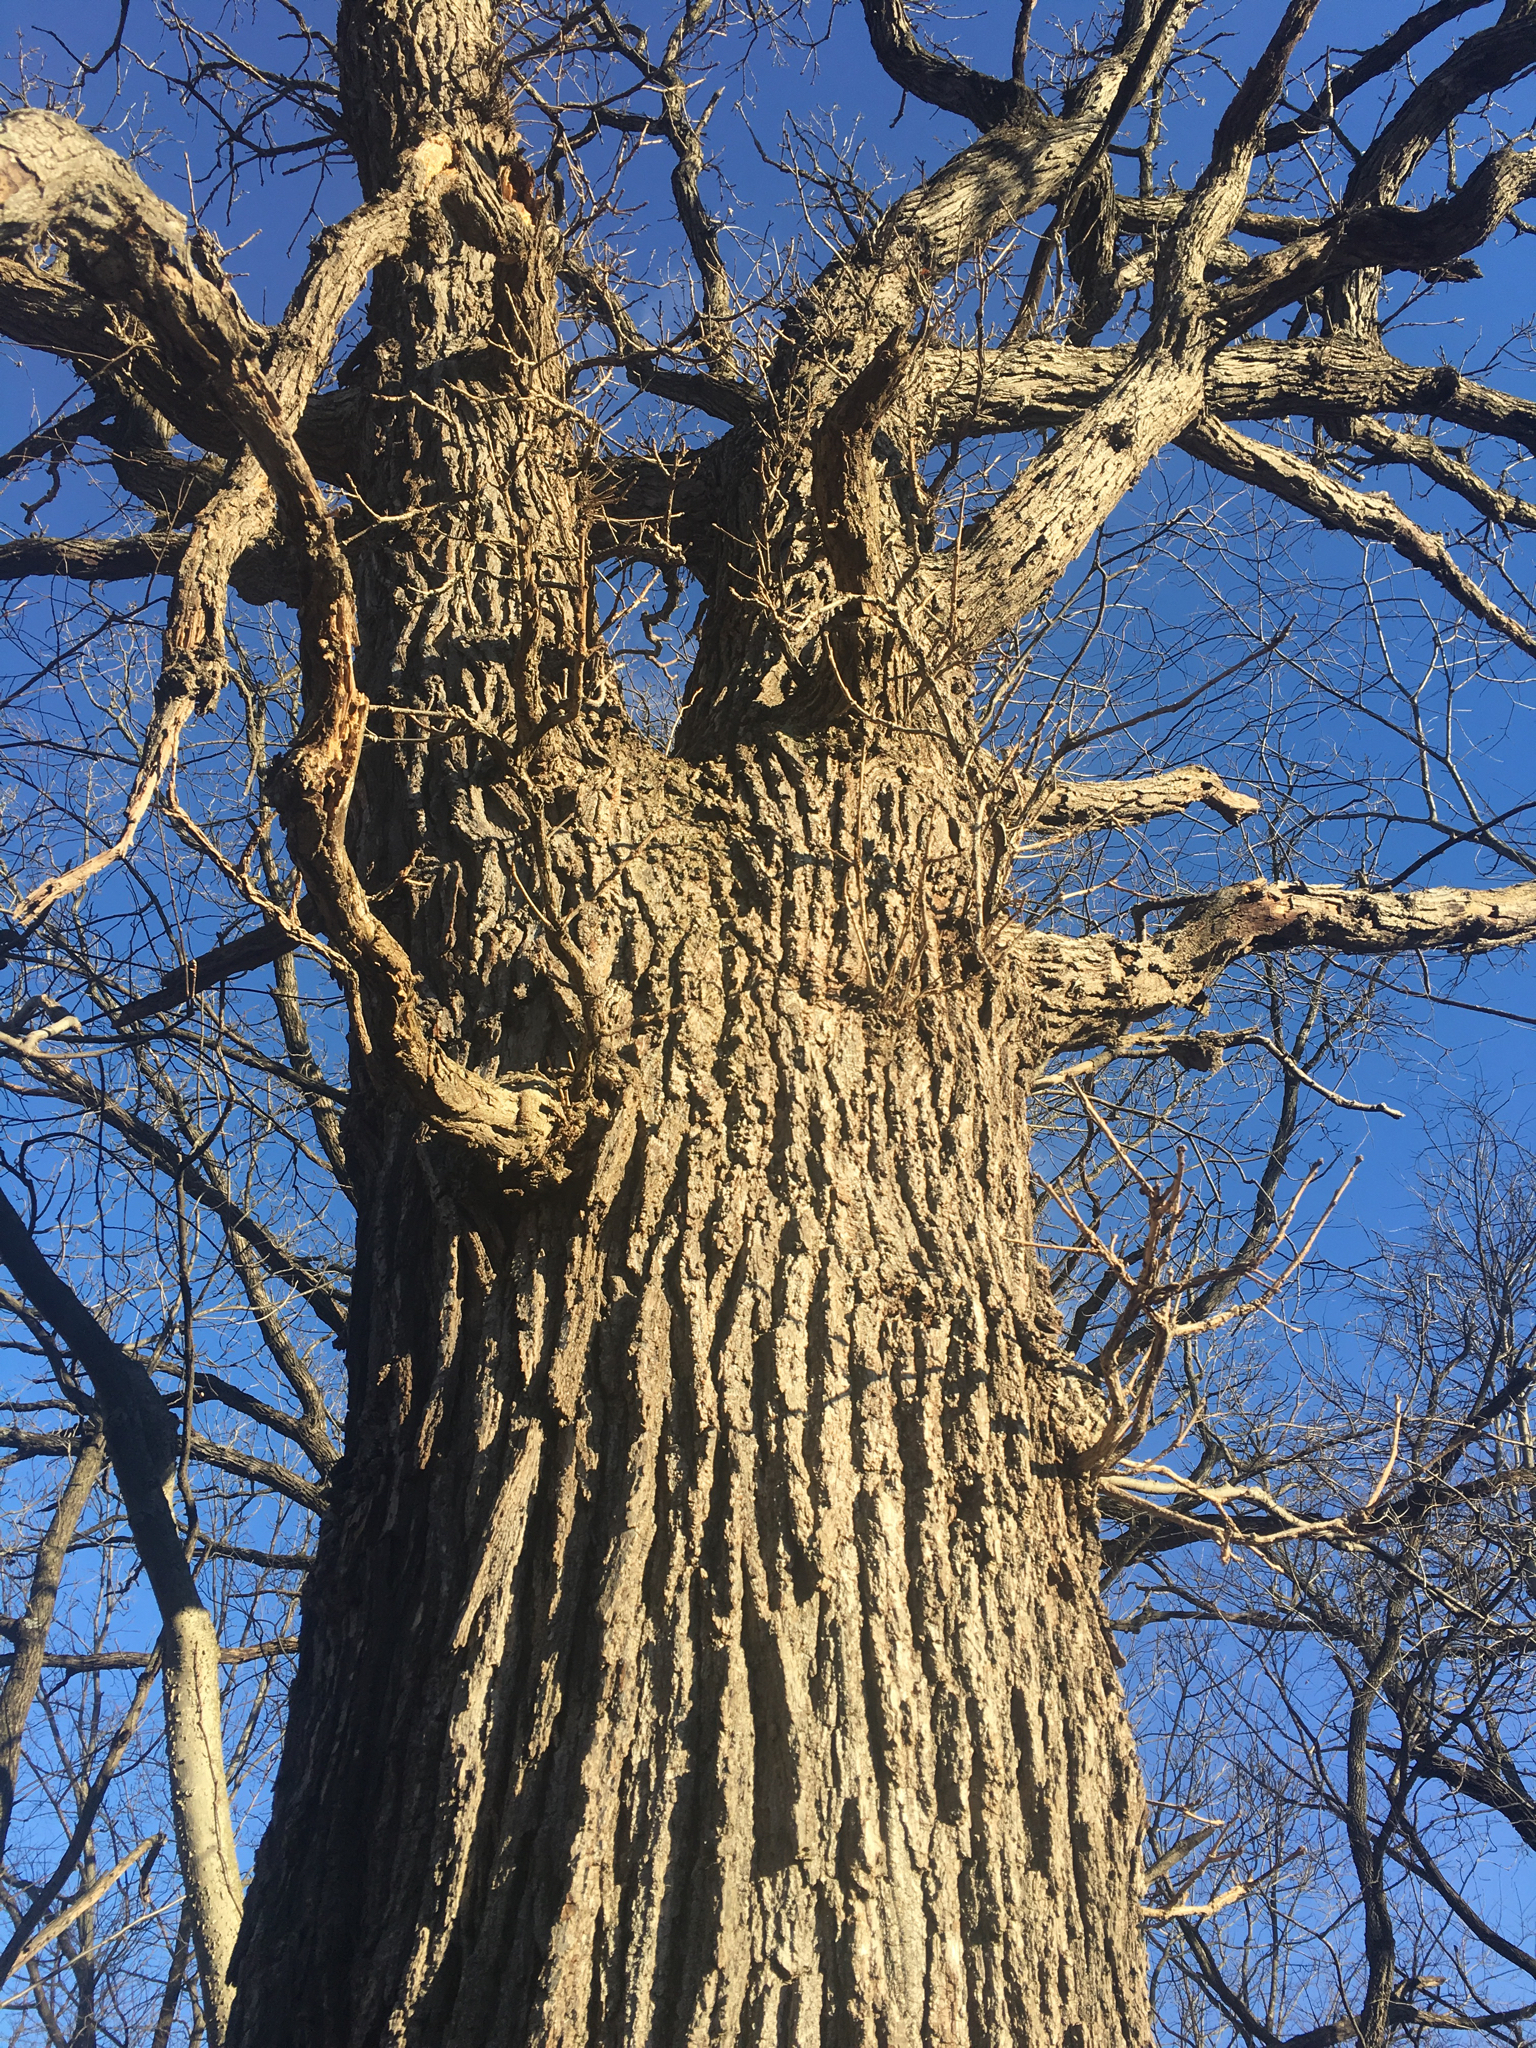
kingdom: Plantae
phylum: Tracheophyta
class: Magnoliopsida
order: Fagales
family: Fagaceae
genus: Quercus
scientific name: Quercus macrocarpa
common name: Bur oak
